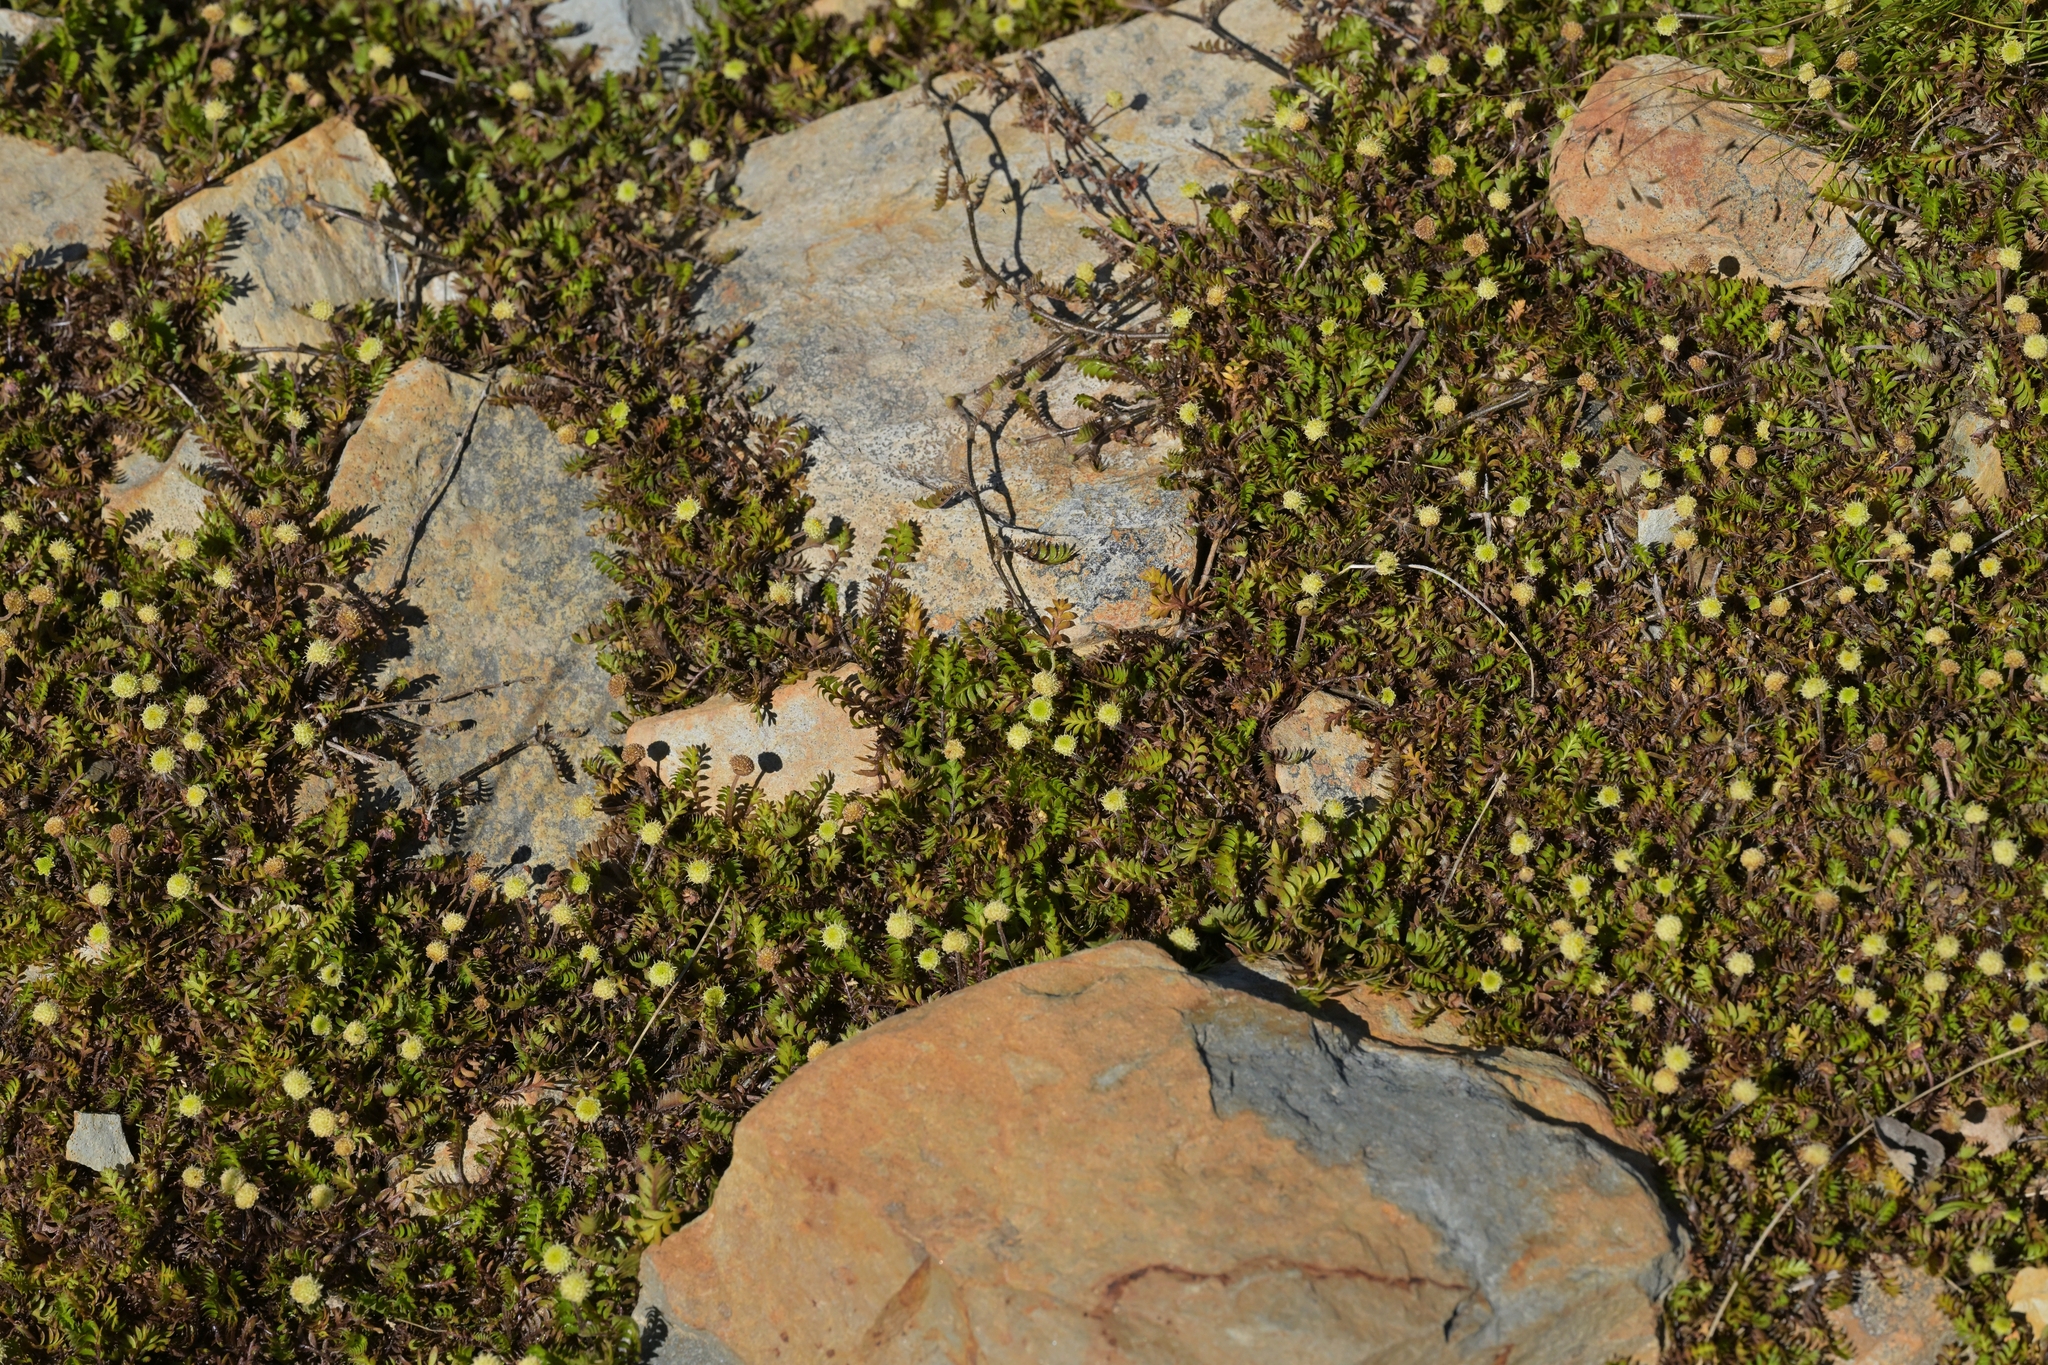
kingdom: Plantae
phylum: Tracheophyta
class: Magnoliopsida
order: Asterales
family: Asteraceae
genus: Leptinella
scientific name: Leptinella squalida
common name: New zealand brass-buttons
